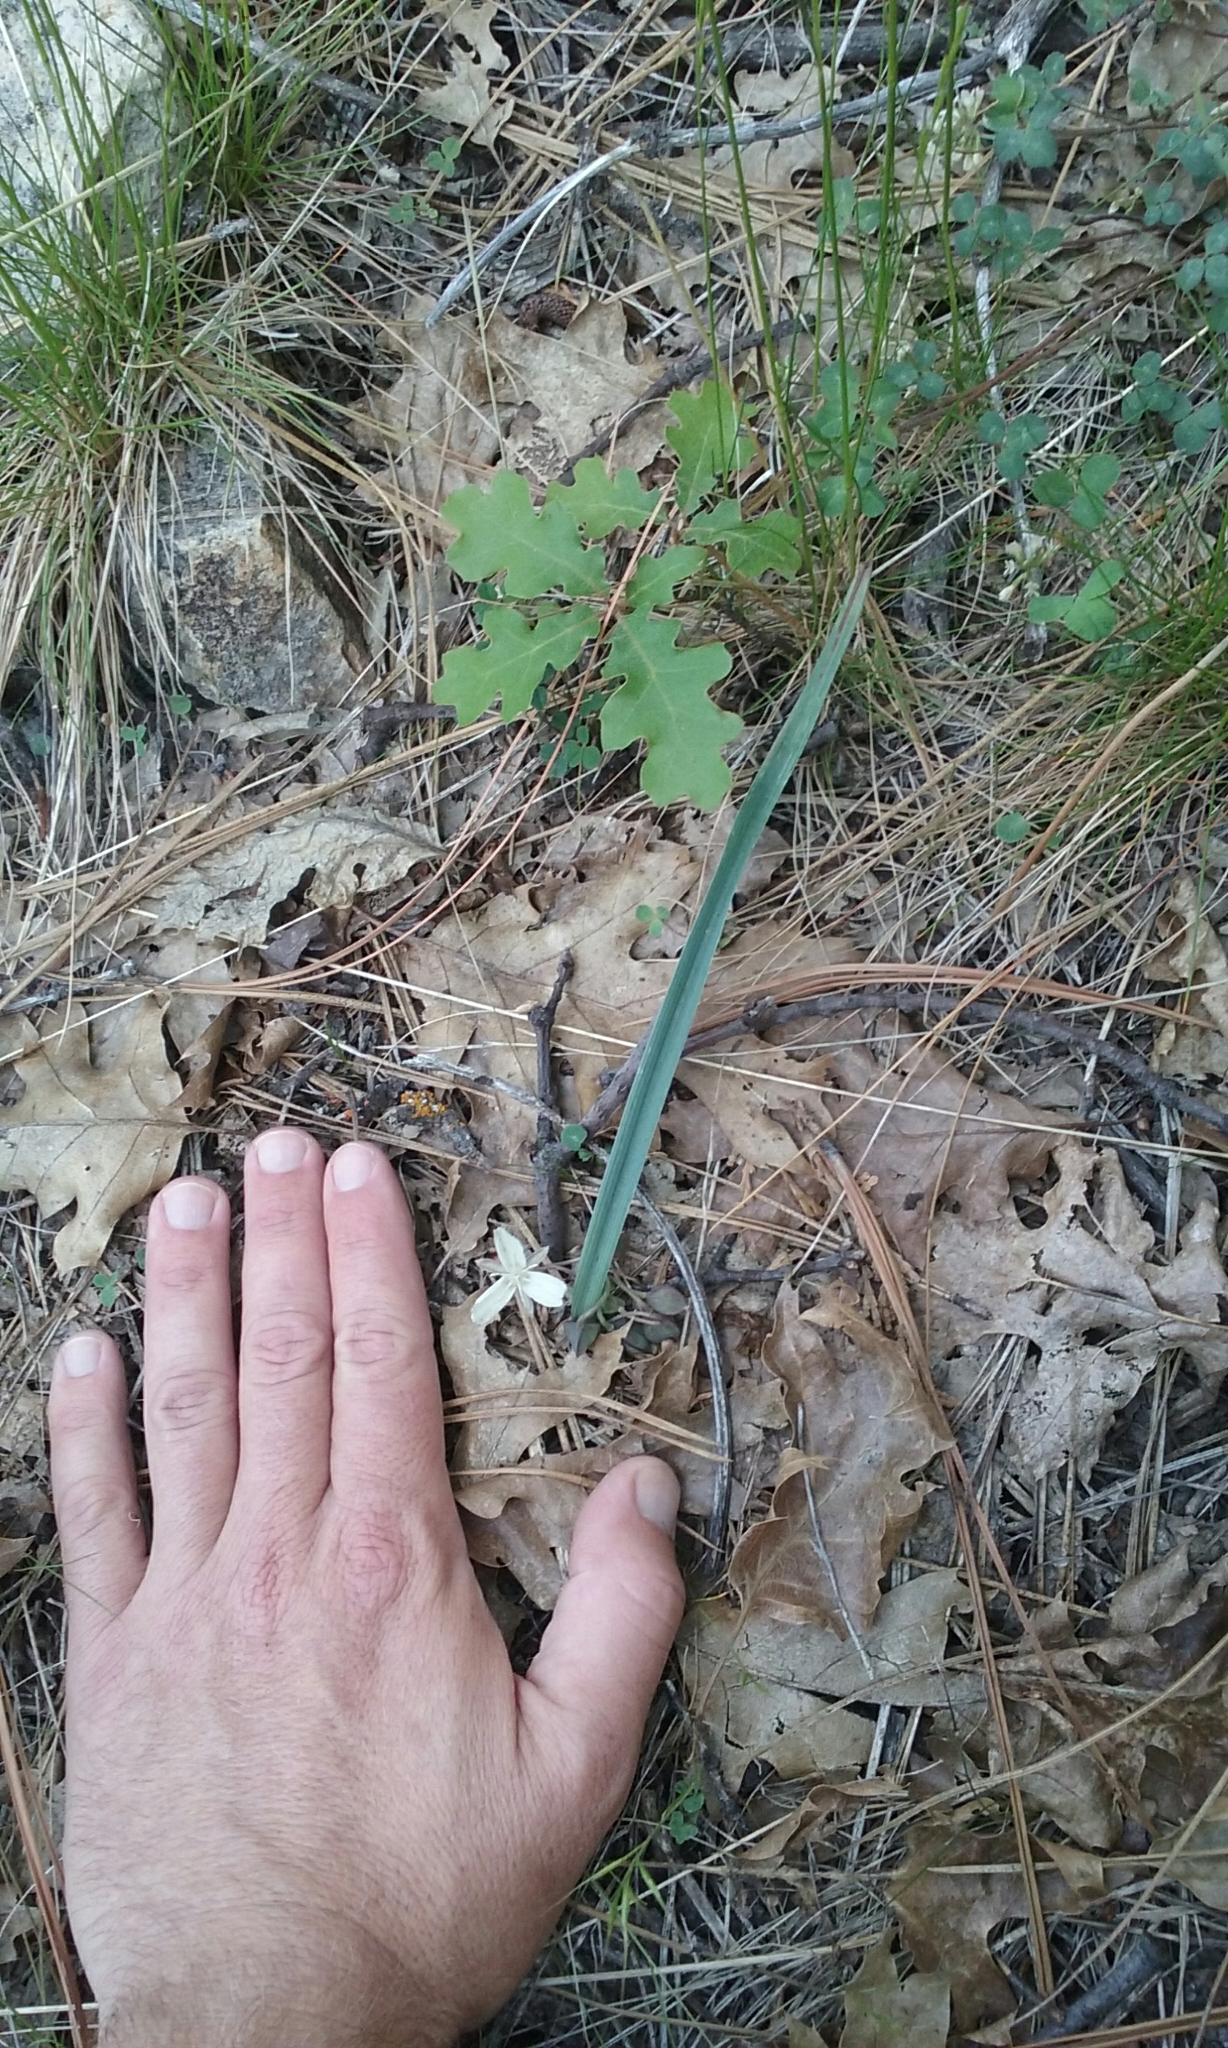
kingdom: Plantae
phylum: Tracheophyta
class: Liliopsida
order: Liliales
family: Liliaceae
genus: Calochortus
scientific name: Calochortus minimus
